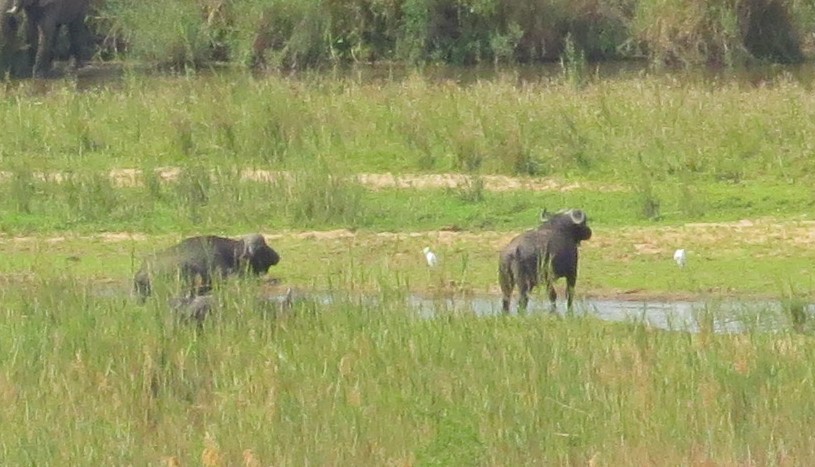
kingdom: Animalia
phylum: Chordata
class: Mammalia
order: Artiodactyla
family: Bovidae
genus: Syncerus
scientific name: Syncerus caffer
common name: African buffalo
